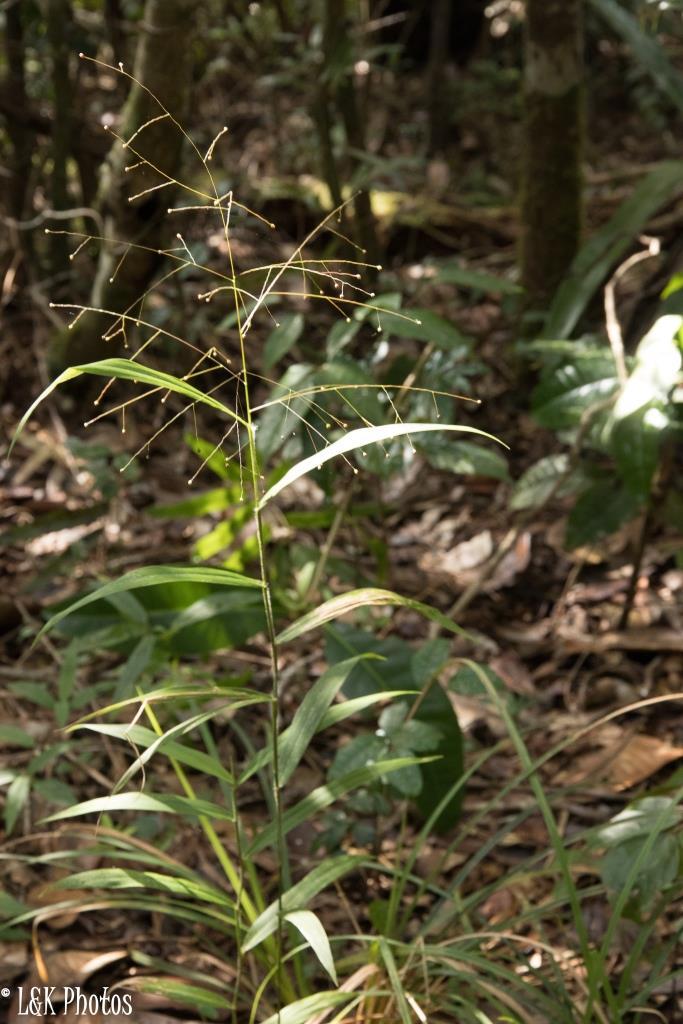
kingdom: Plantae
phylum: Tracheophyta
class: Liliopsida
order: Poales
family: Poaceae
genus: Isachne
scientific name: Isachne mauritiana
